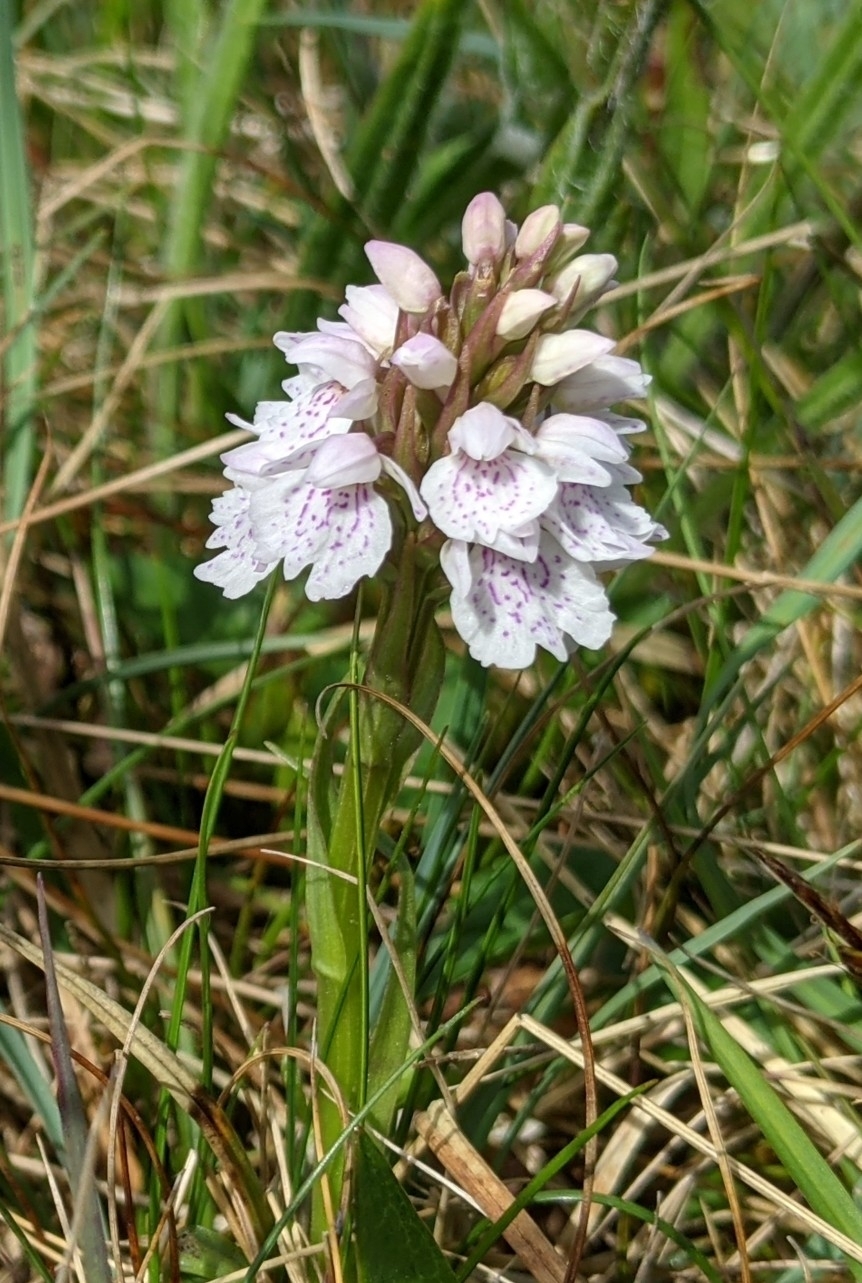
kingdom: Plantae
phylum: Tracheophyta
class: Liliopsida
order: Asparagales
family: Orchidaceae
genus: Dactylorhiza
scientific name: Dactylorhiza maculata
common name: Heath spotted-orchid
